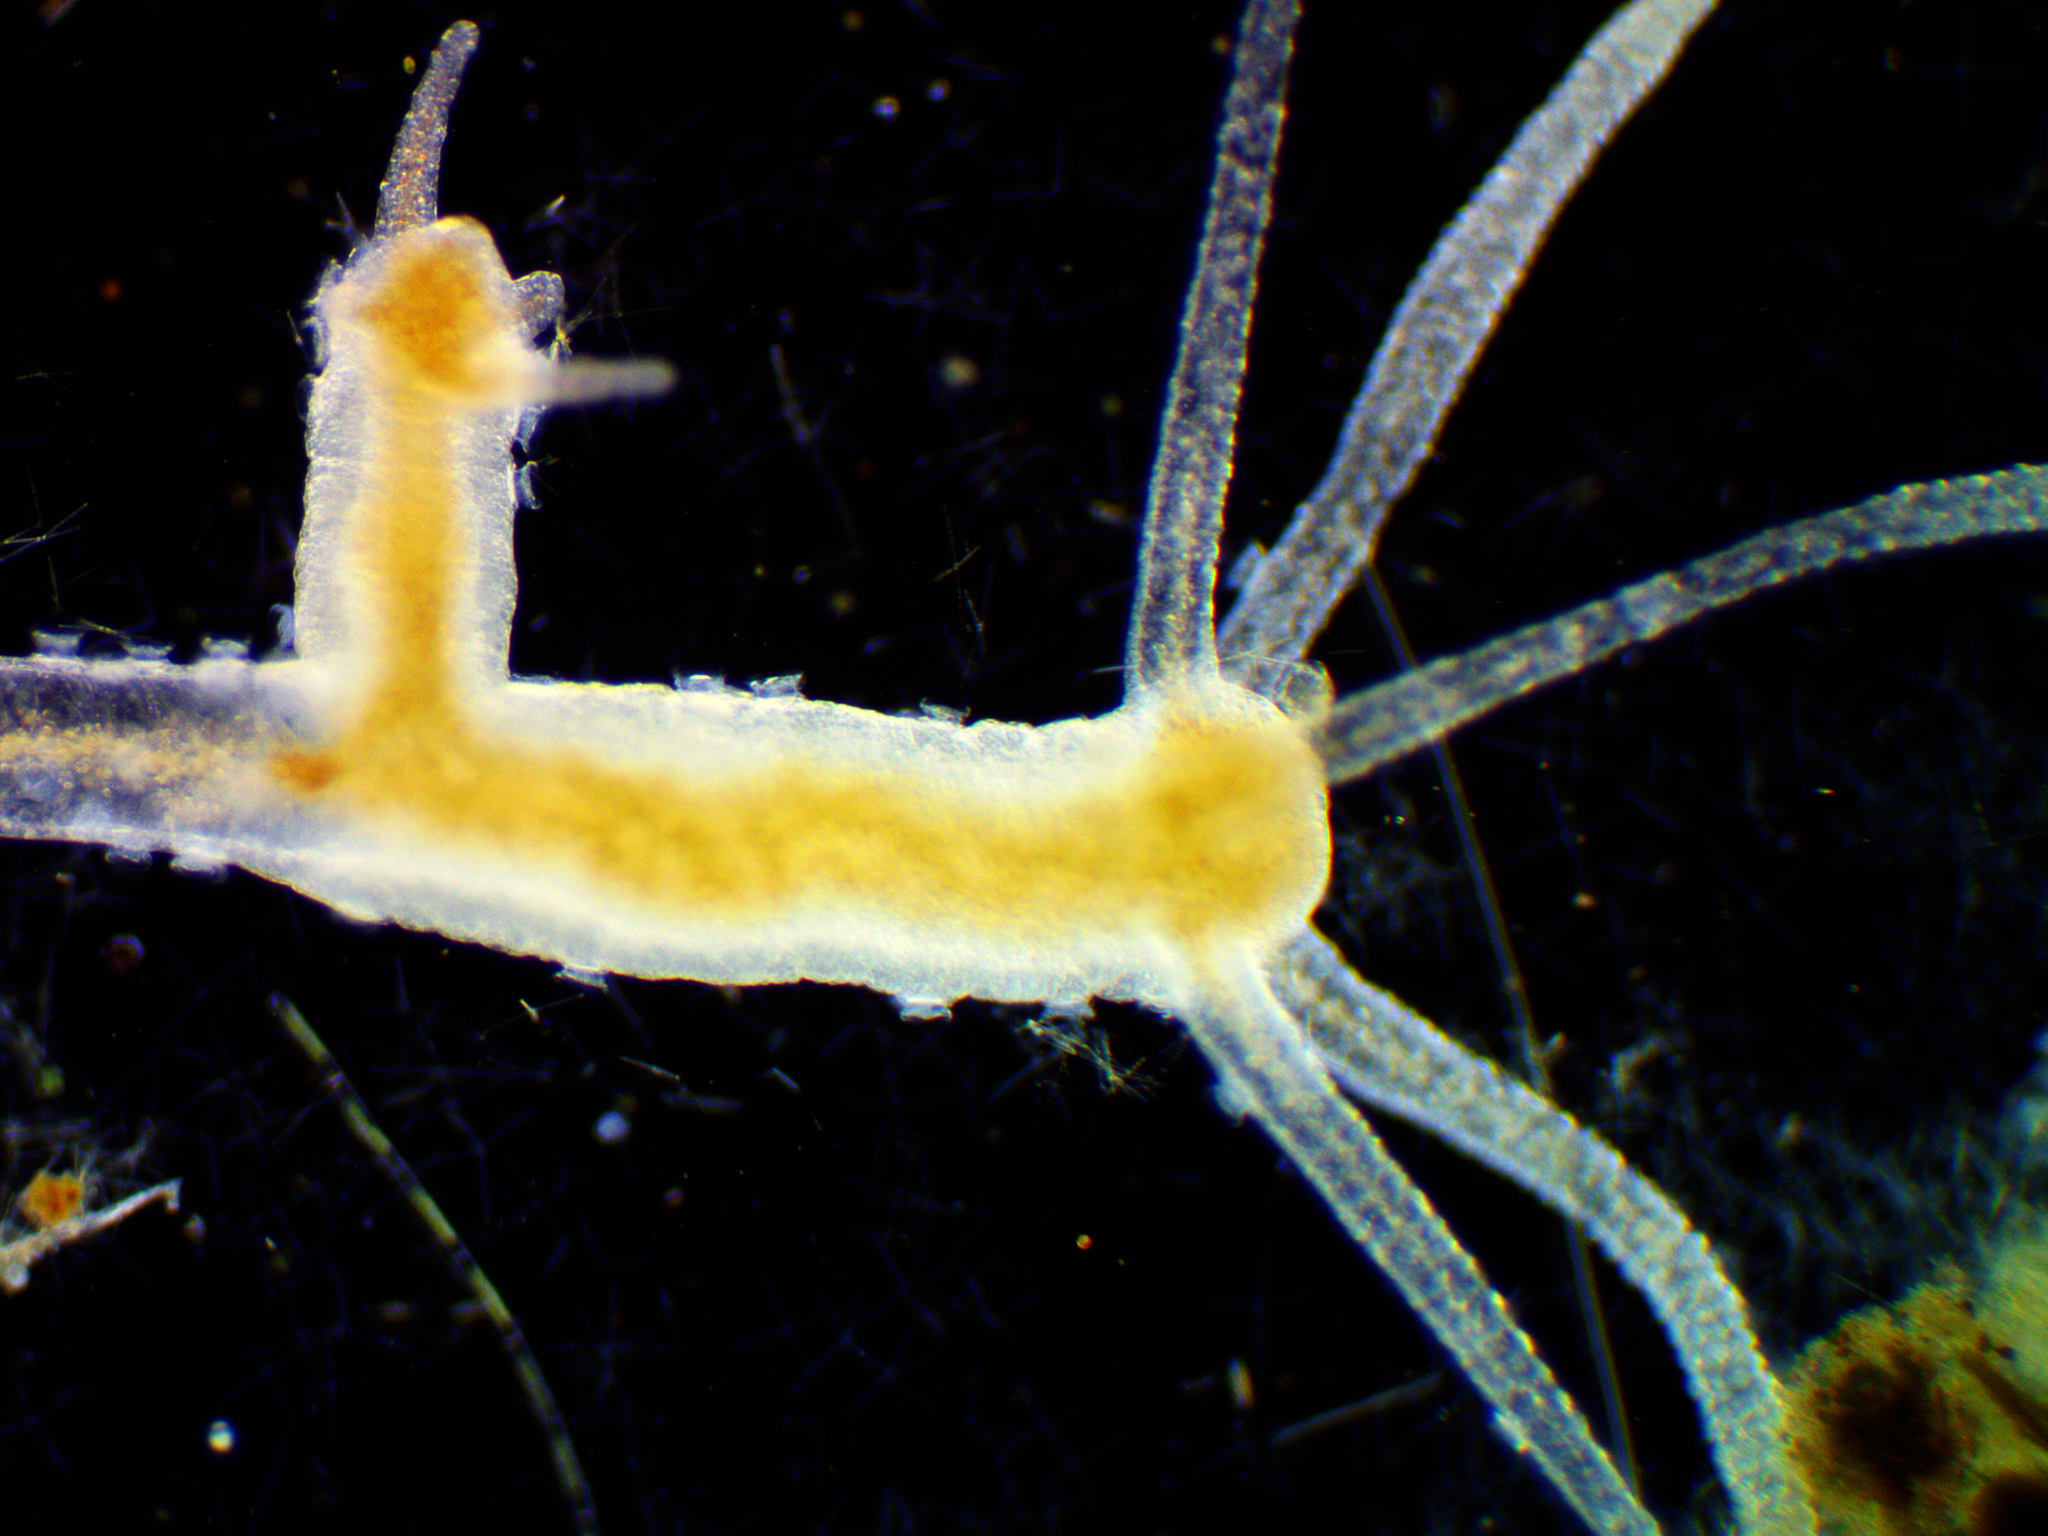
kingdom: Animalia
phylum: Cnidaria
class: Hydrozoa
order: Anthoathecata
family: Hydridae
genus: Hydra
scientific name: Hydra oligactis
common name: Brown hydra
